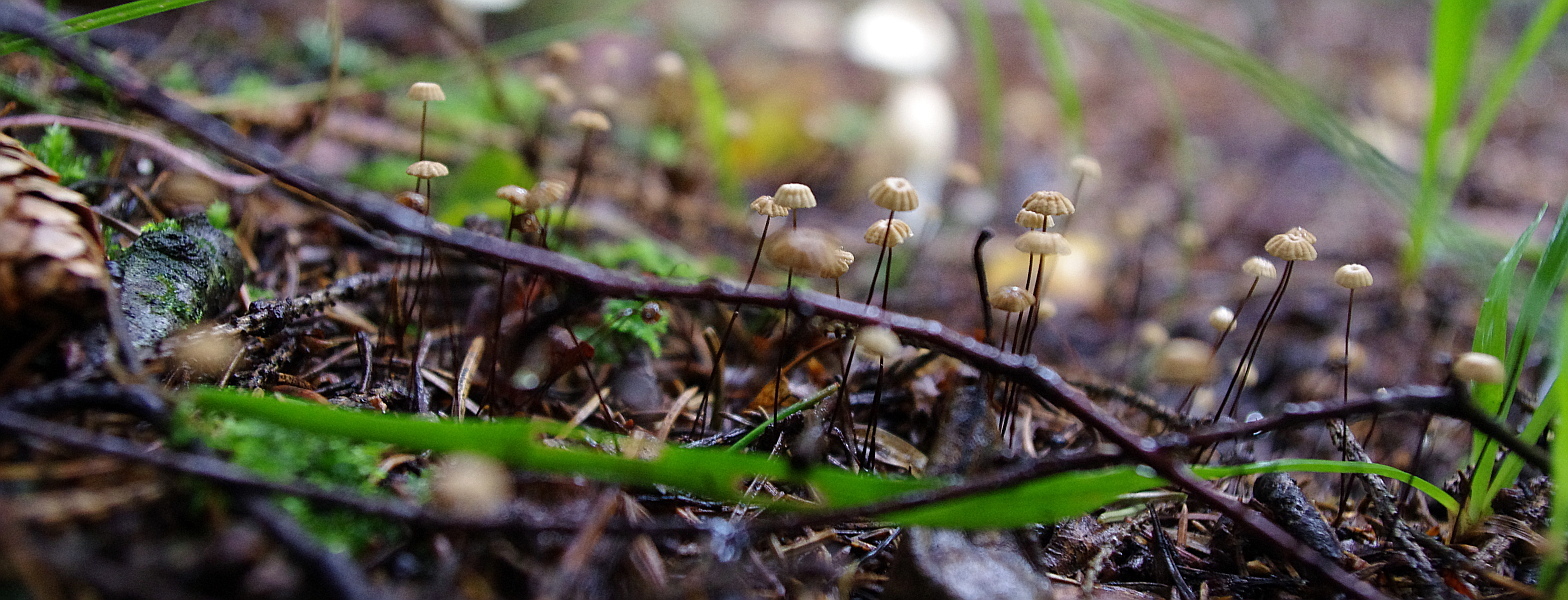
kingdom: Fungi
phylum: Basidiomycota
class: Agaricomycetes
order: Agaricales
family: Marasmiaceae
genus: Marasmius
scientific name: Marasmius wettsteinii
